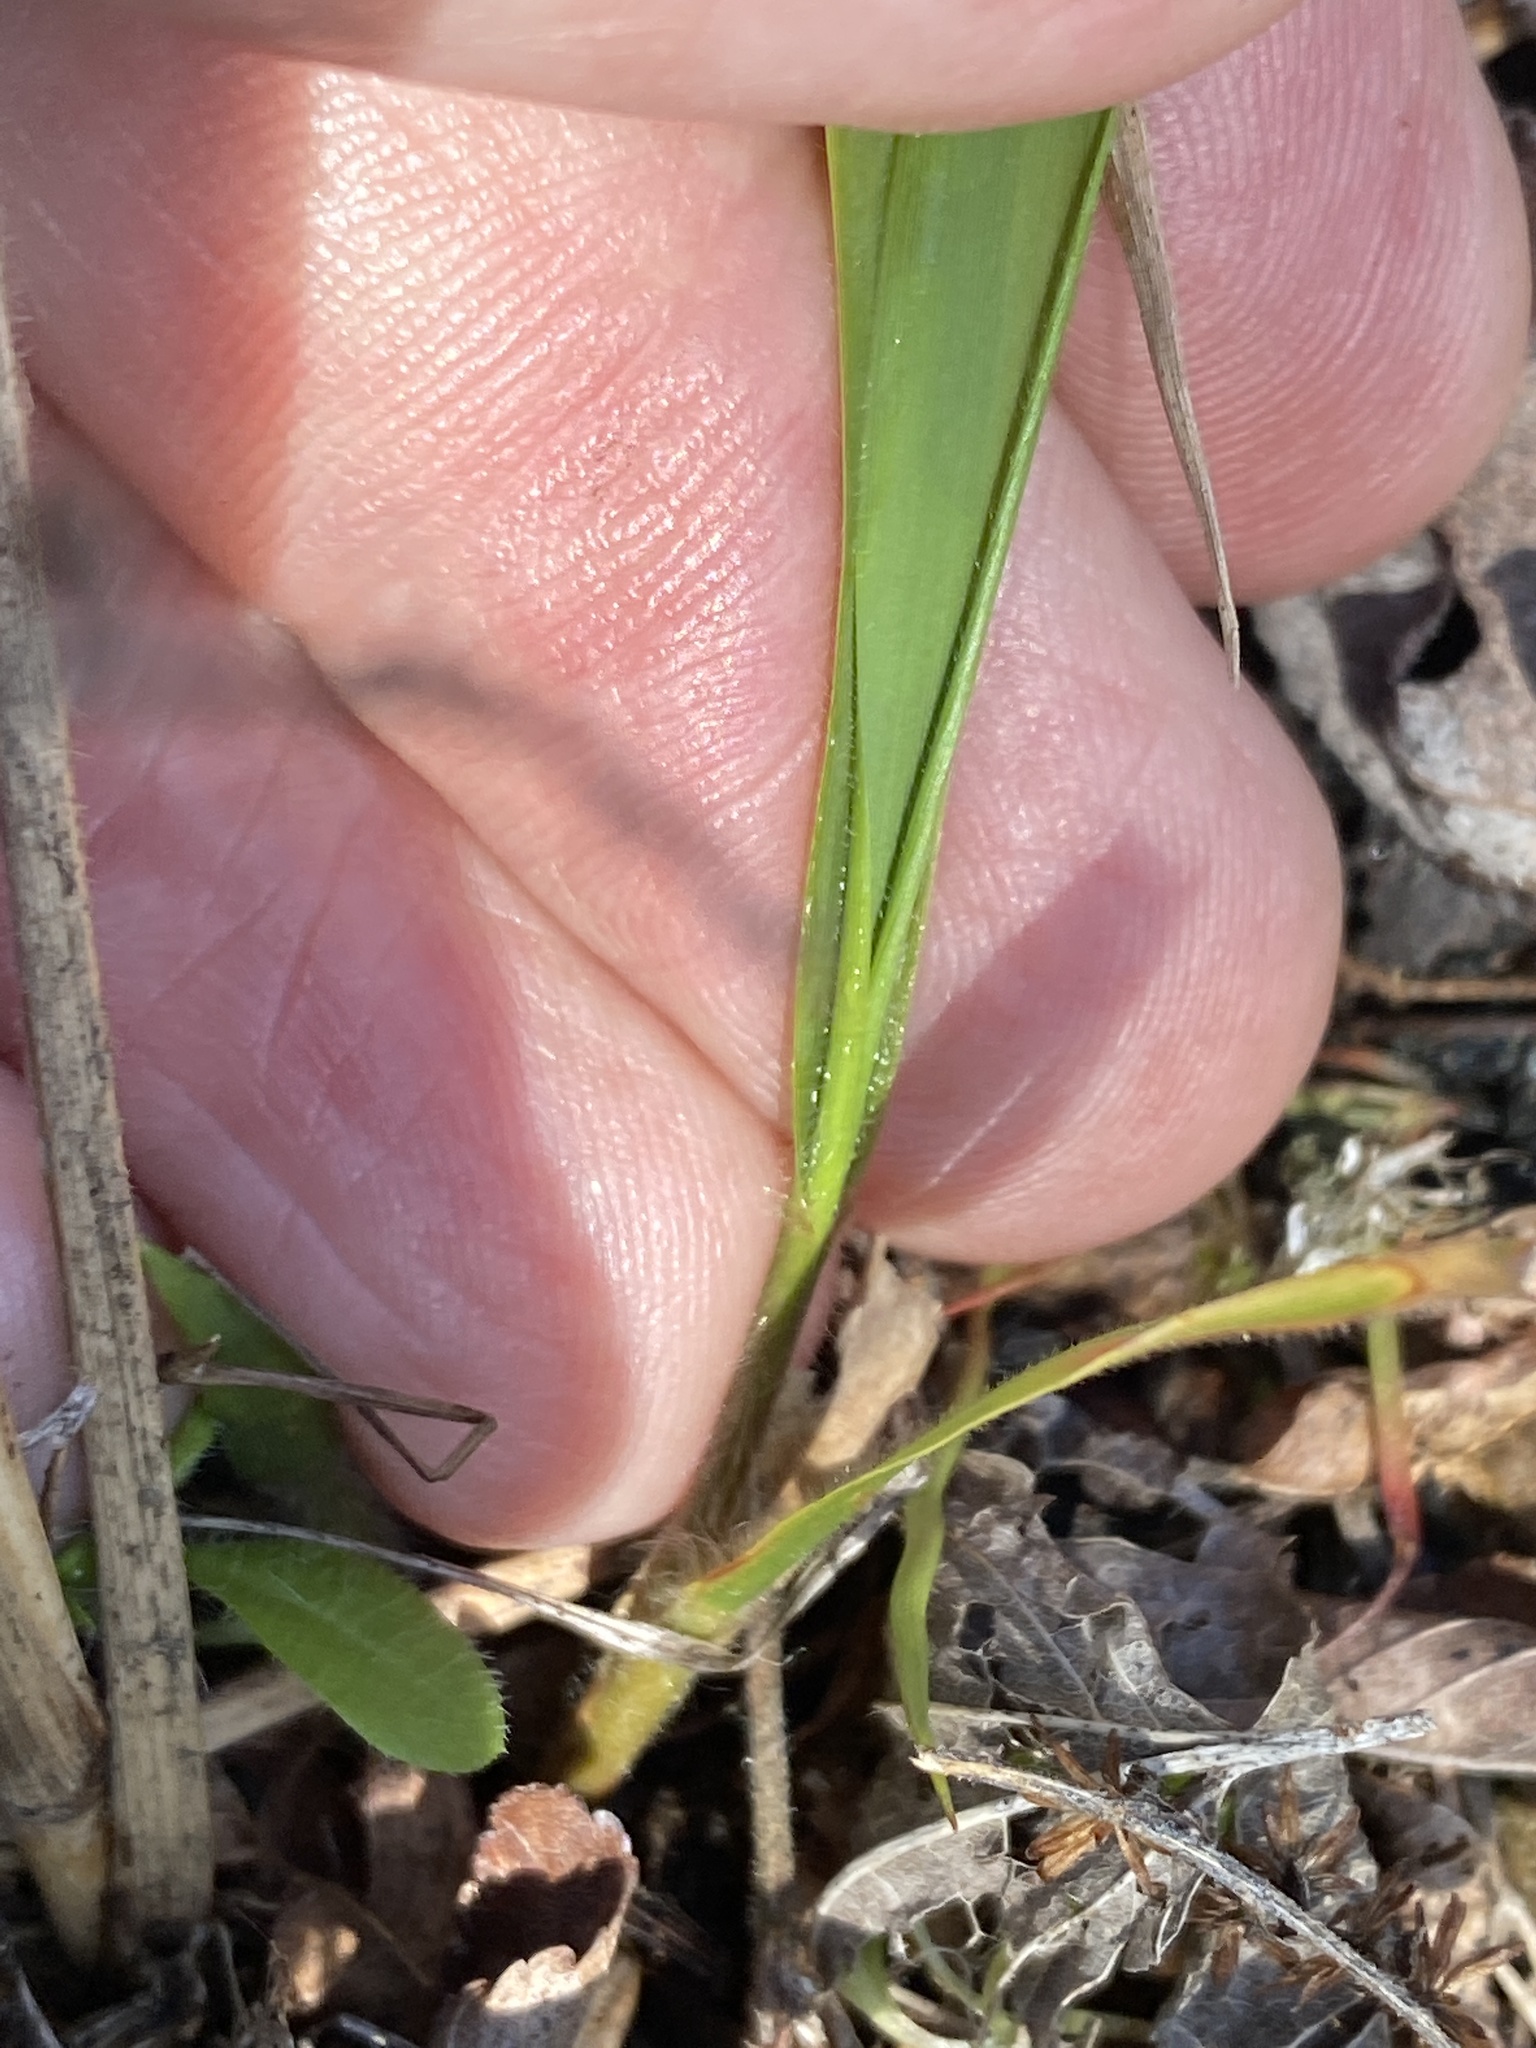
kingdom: Plantae
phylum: Tracheophyta
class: Liliopsida
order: Poales
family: Poaceae
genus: Chasmanthium
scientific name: Chasmanthium laxum
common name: Slender chasmanthium
